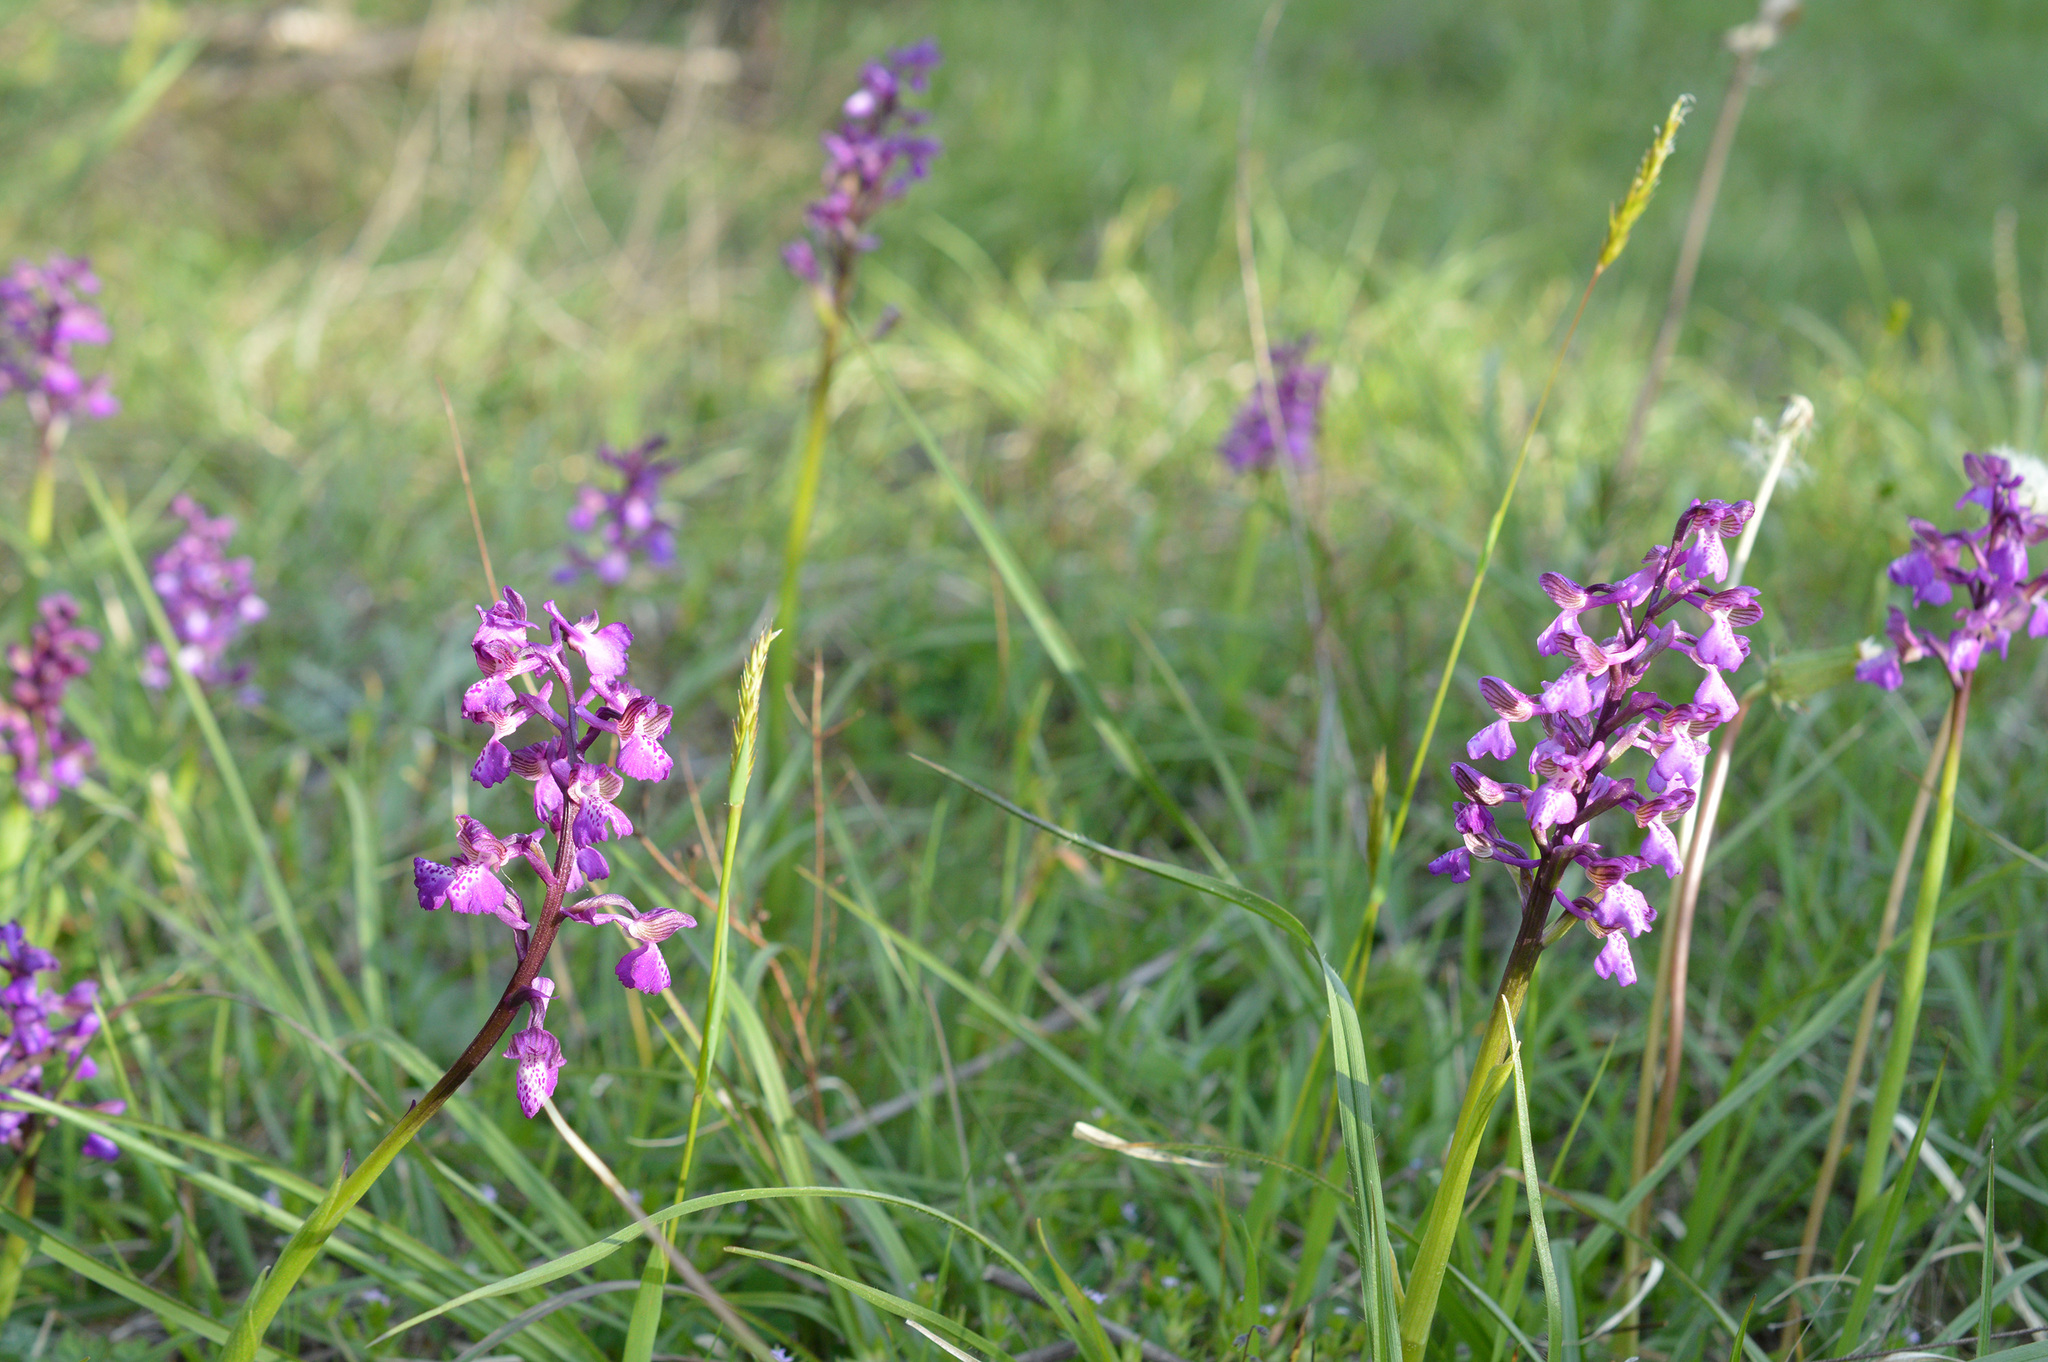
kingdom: Plantae
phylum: Tracheophyta
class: Liliopsida
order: Asparagales
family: Orchidaceae
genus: Anacamptis
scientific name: Anacamptis morio
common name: Green-winged orchid
